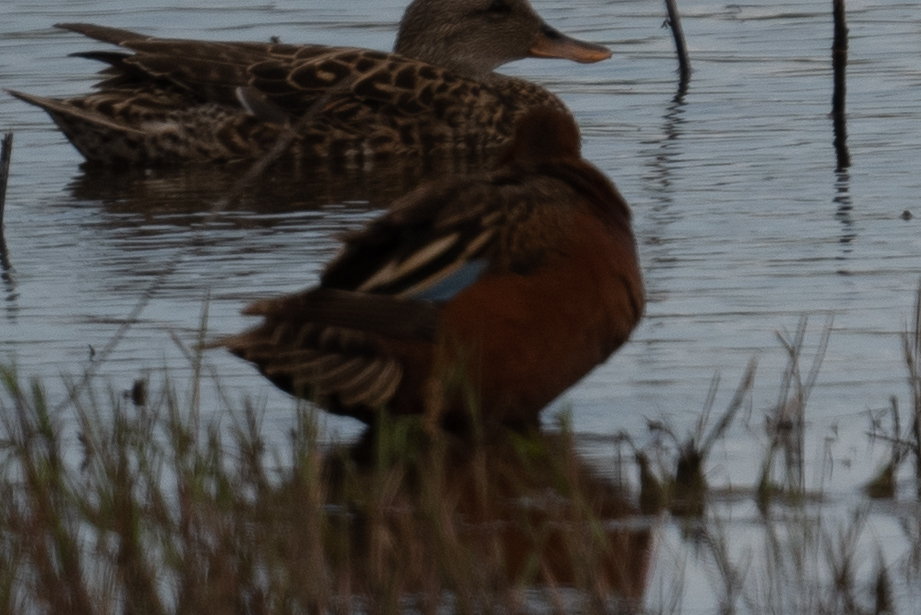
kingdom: Animalia
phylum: Chordata
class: Aves
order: Anseriformes
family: Anatidae
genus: Spatula
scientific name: Spatula cyanoptera
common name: Cinnamon teal
